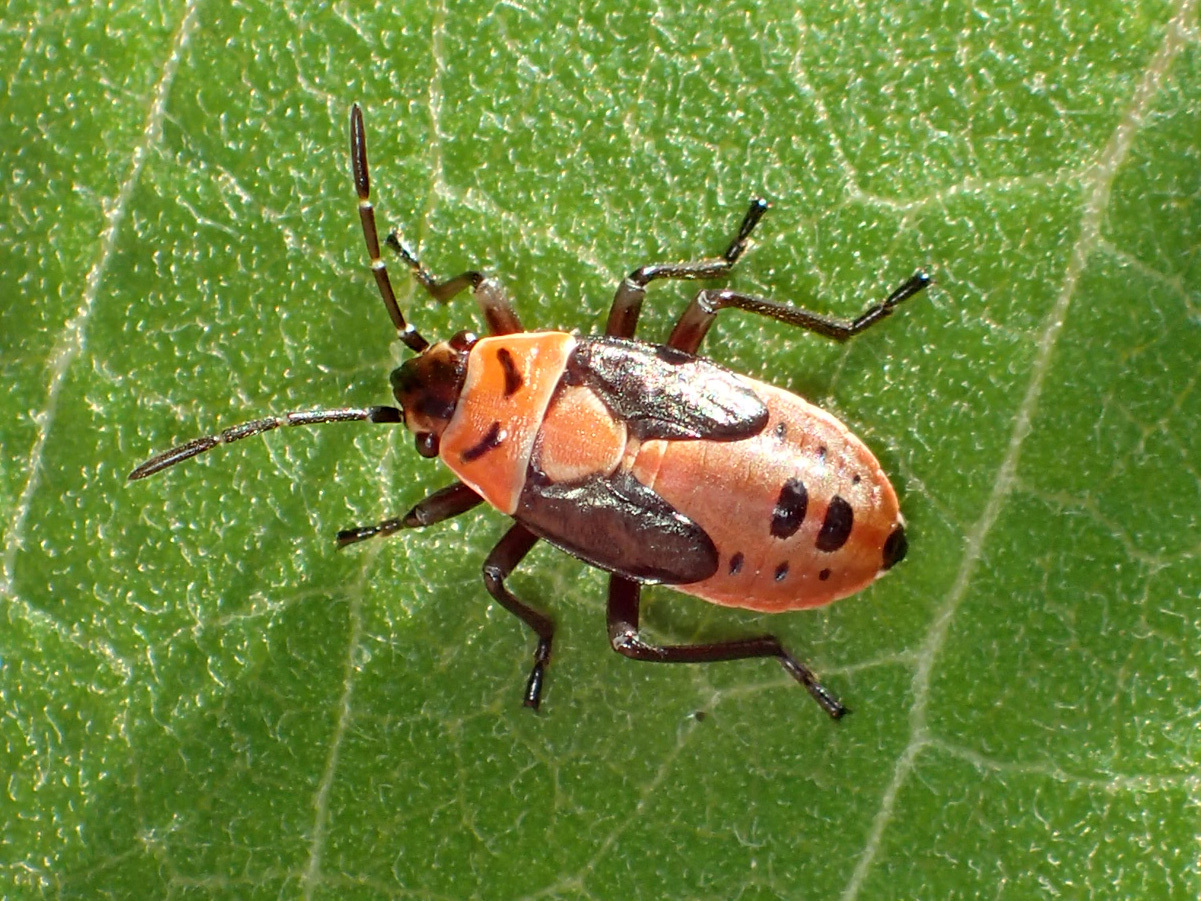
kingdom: Animalia
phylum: Arthropoda
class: Insecta
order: Hemiptera
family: Lygaeidae
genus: Lygaeus
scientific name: Lygaeus kalmii
